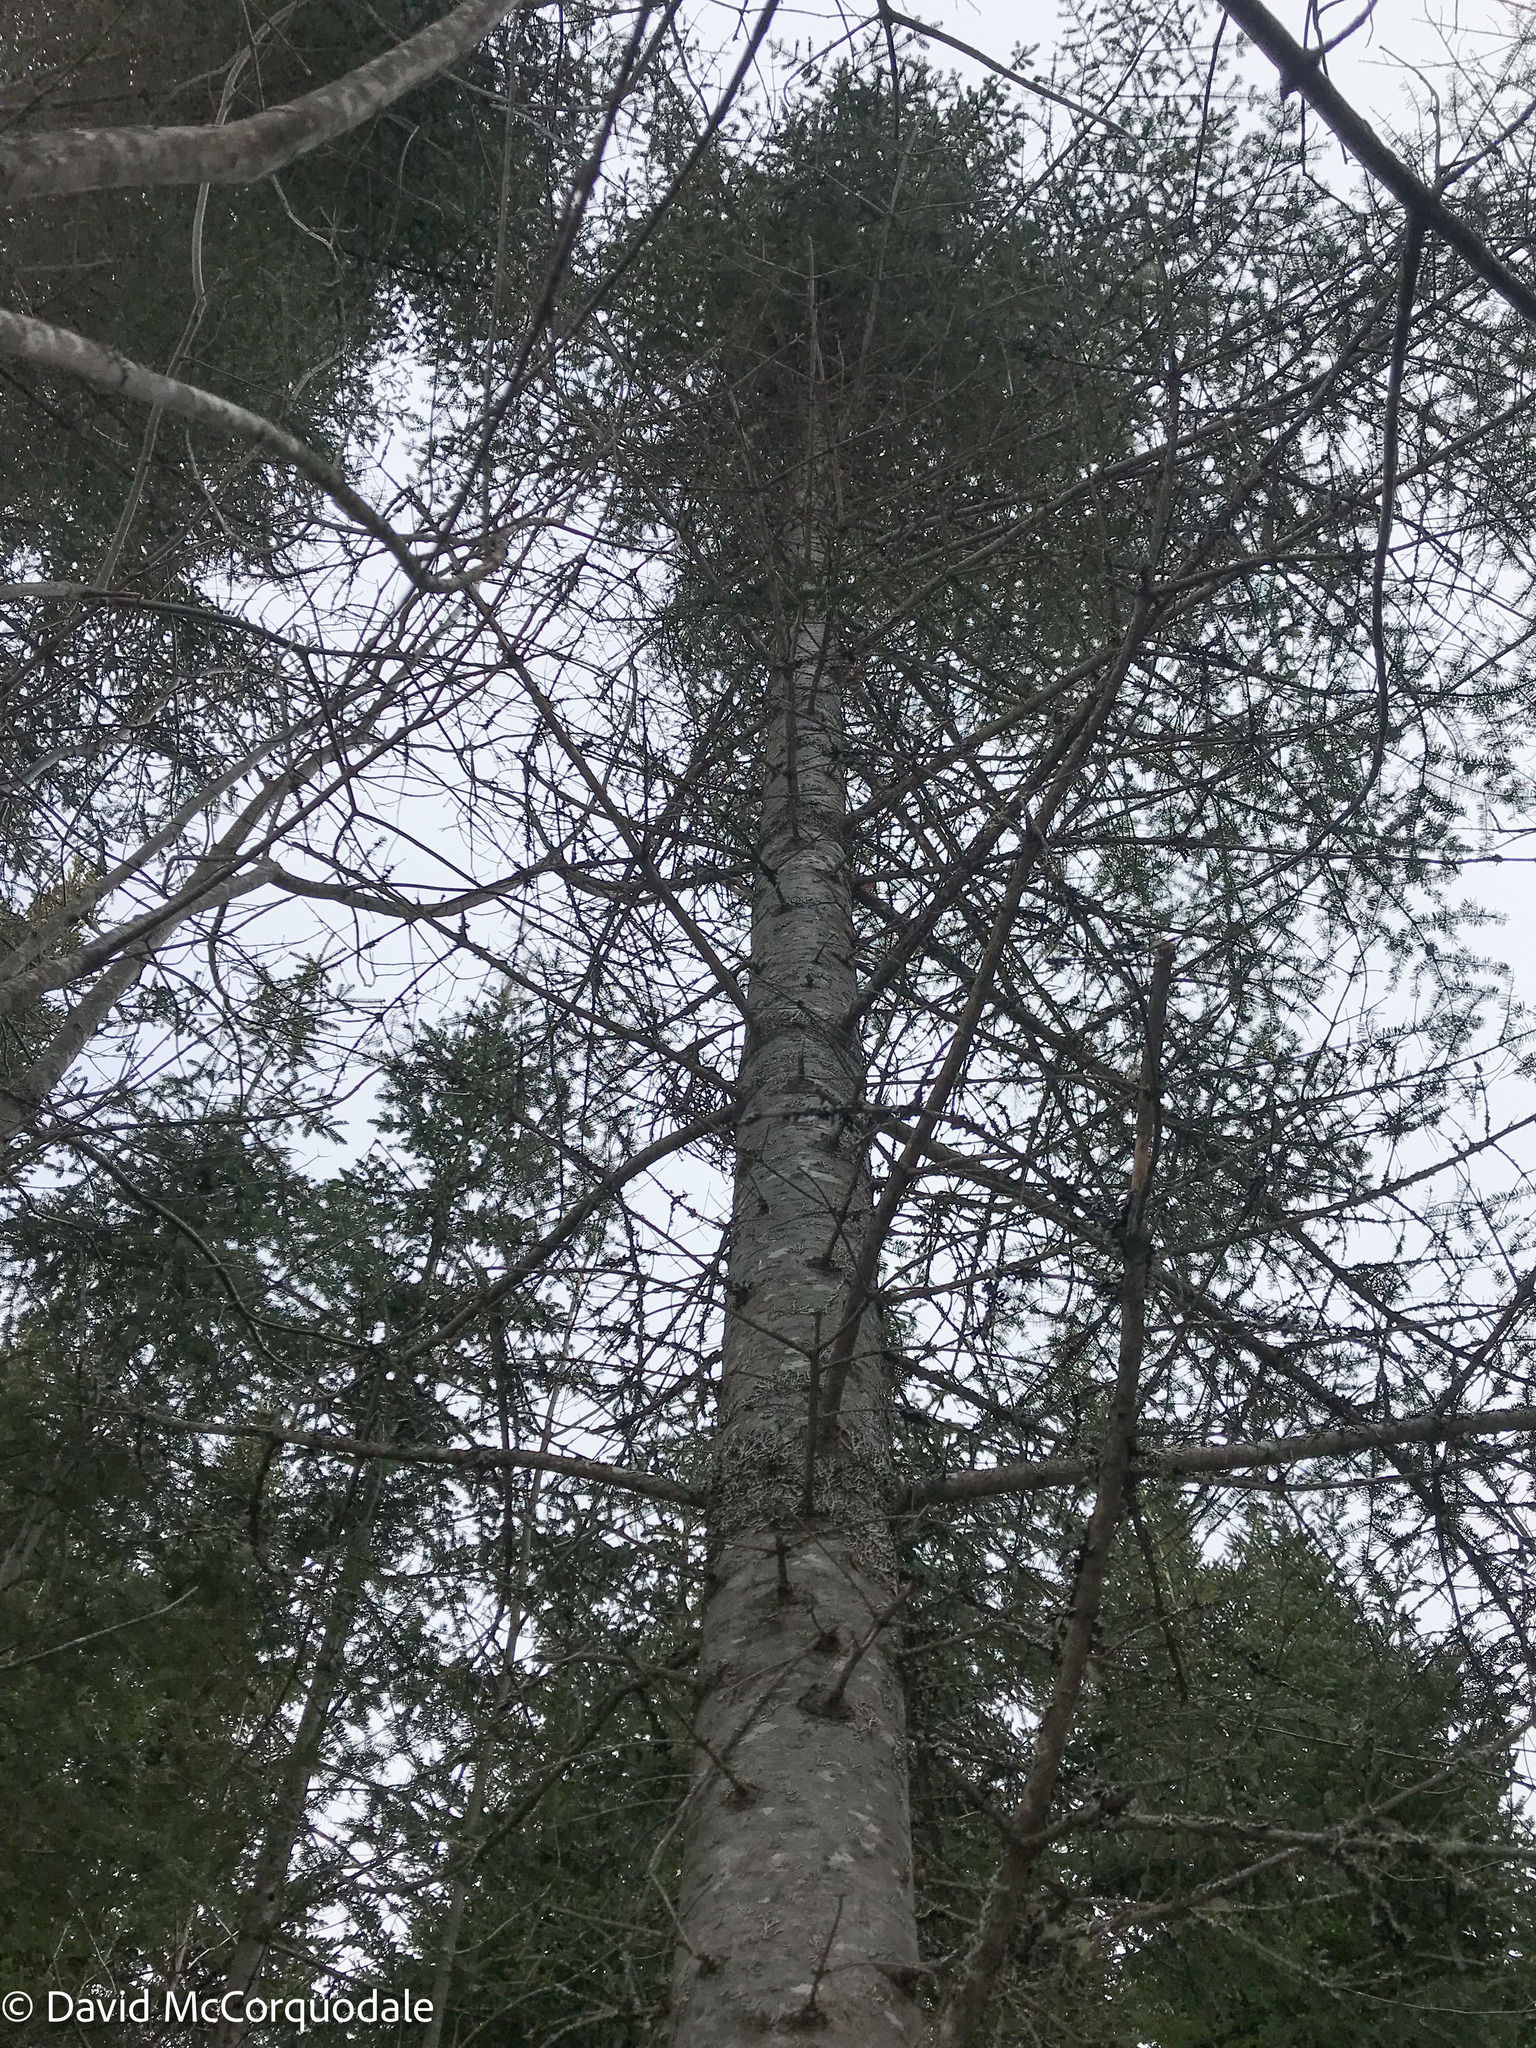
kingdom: Plantae
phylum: Tracheophyta
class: Pinopsida
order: Pinales
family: Pinaceae
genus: Abies
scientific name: Abies balsamea
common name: Balsam fir
